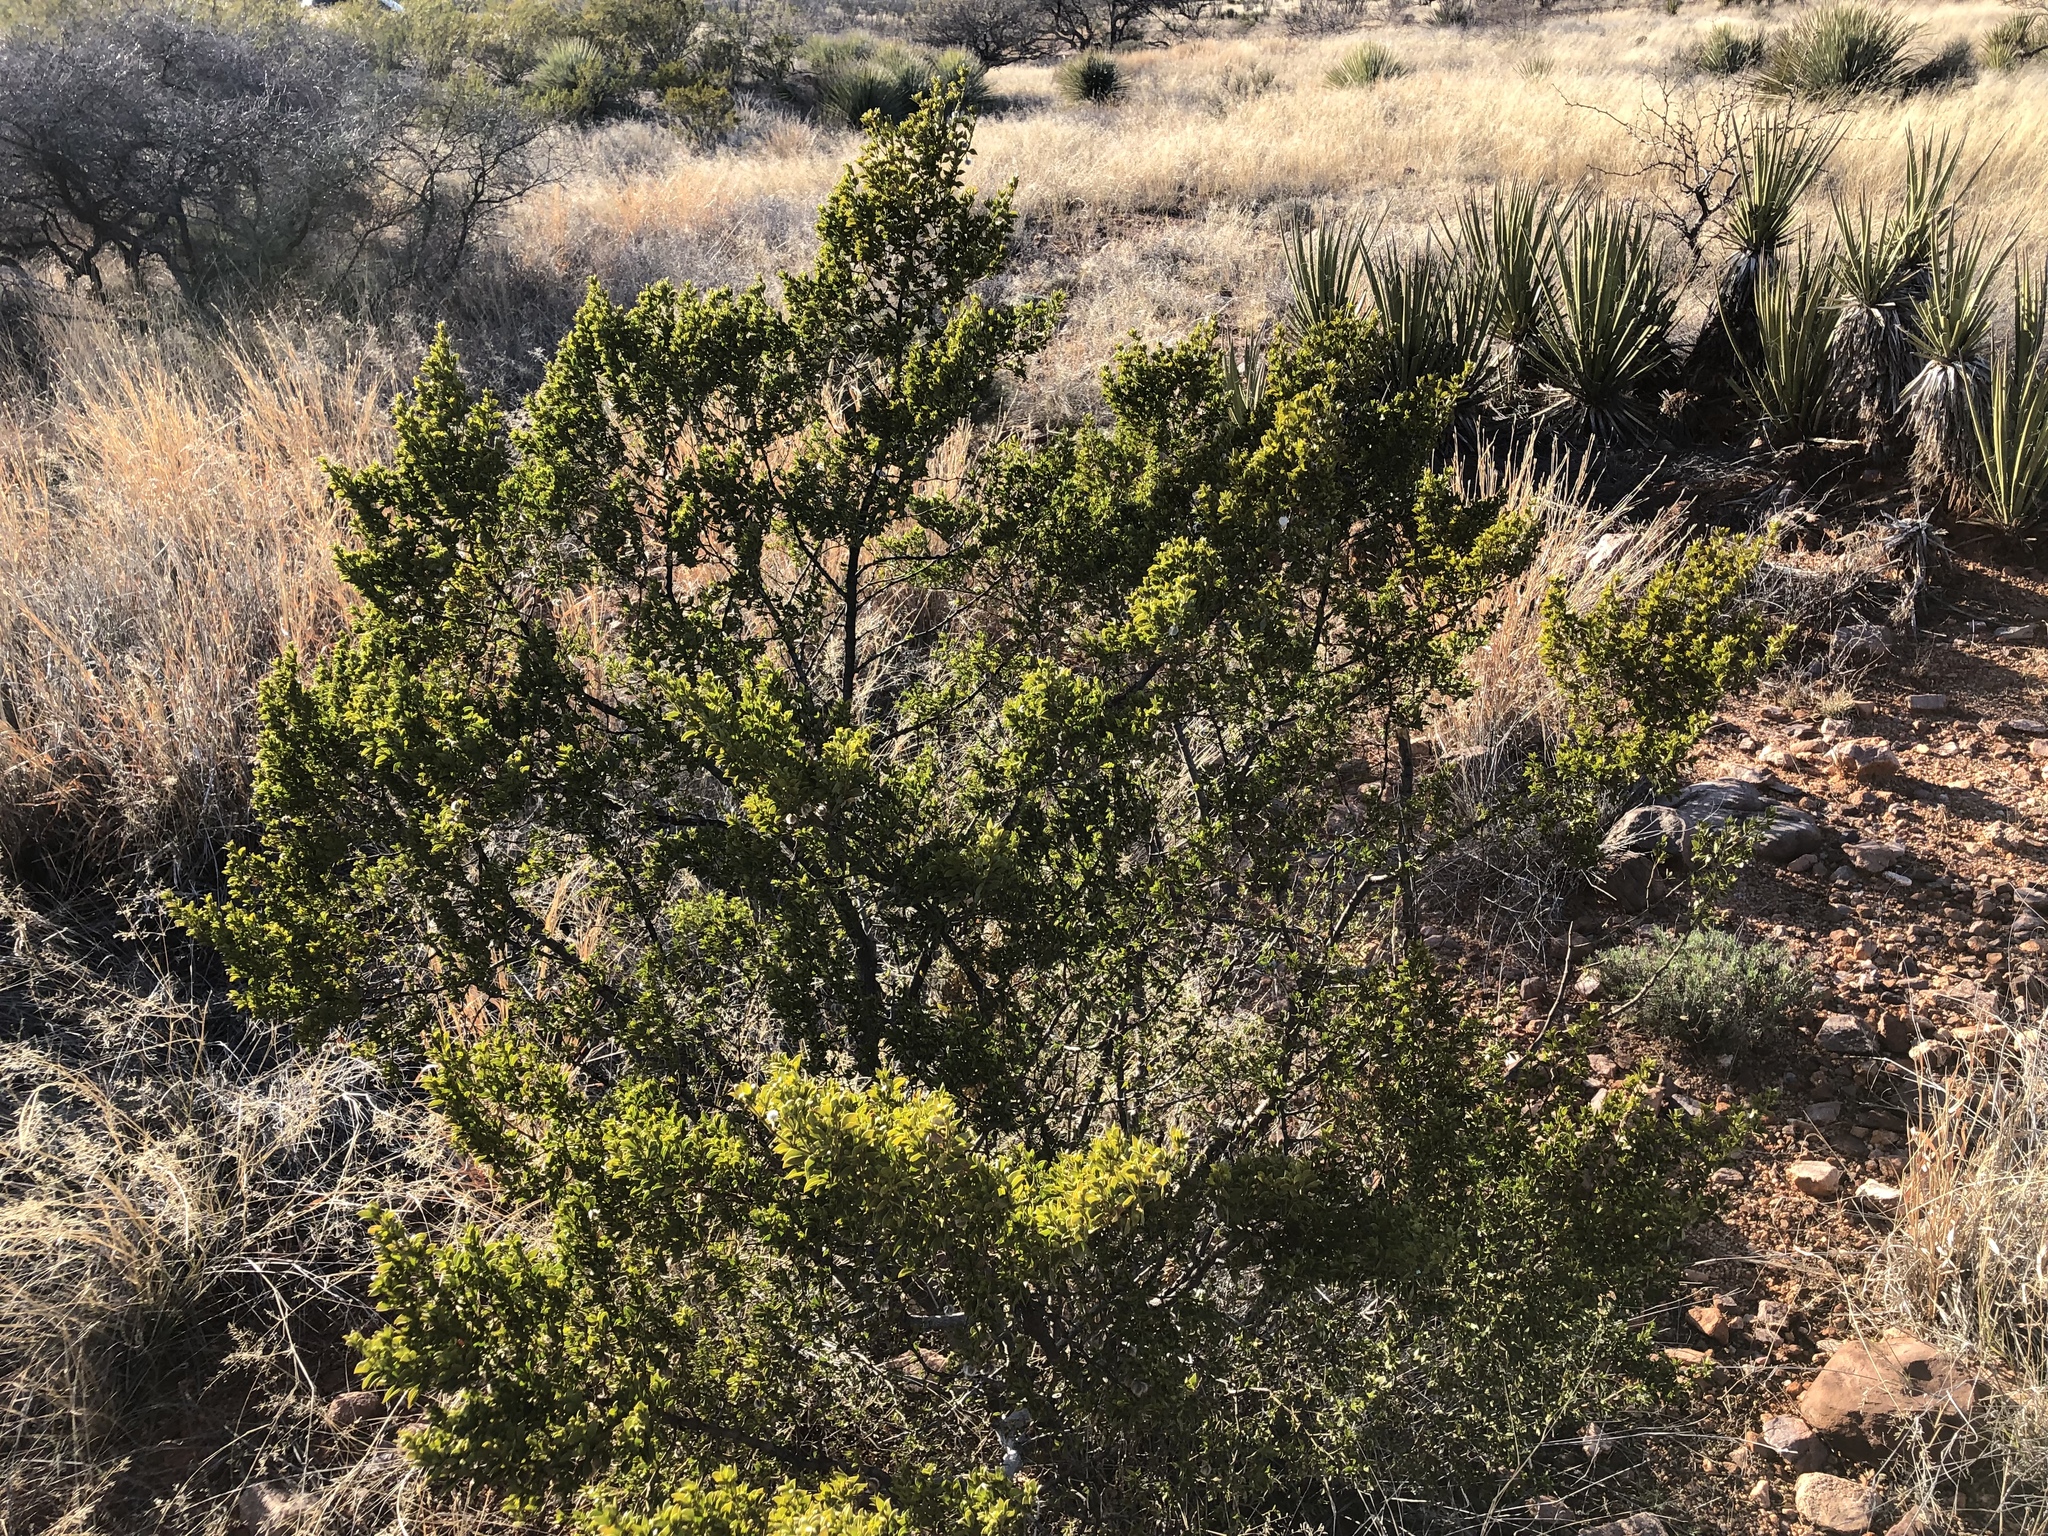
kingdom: Plantae
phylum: Tracheophyta
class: Magnoliopsida
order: Zygophyllales
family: Zygophyllaceae
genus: Larrea
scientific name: Larrea tridentata
